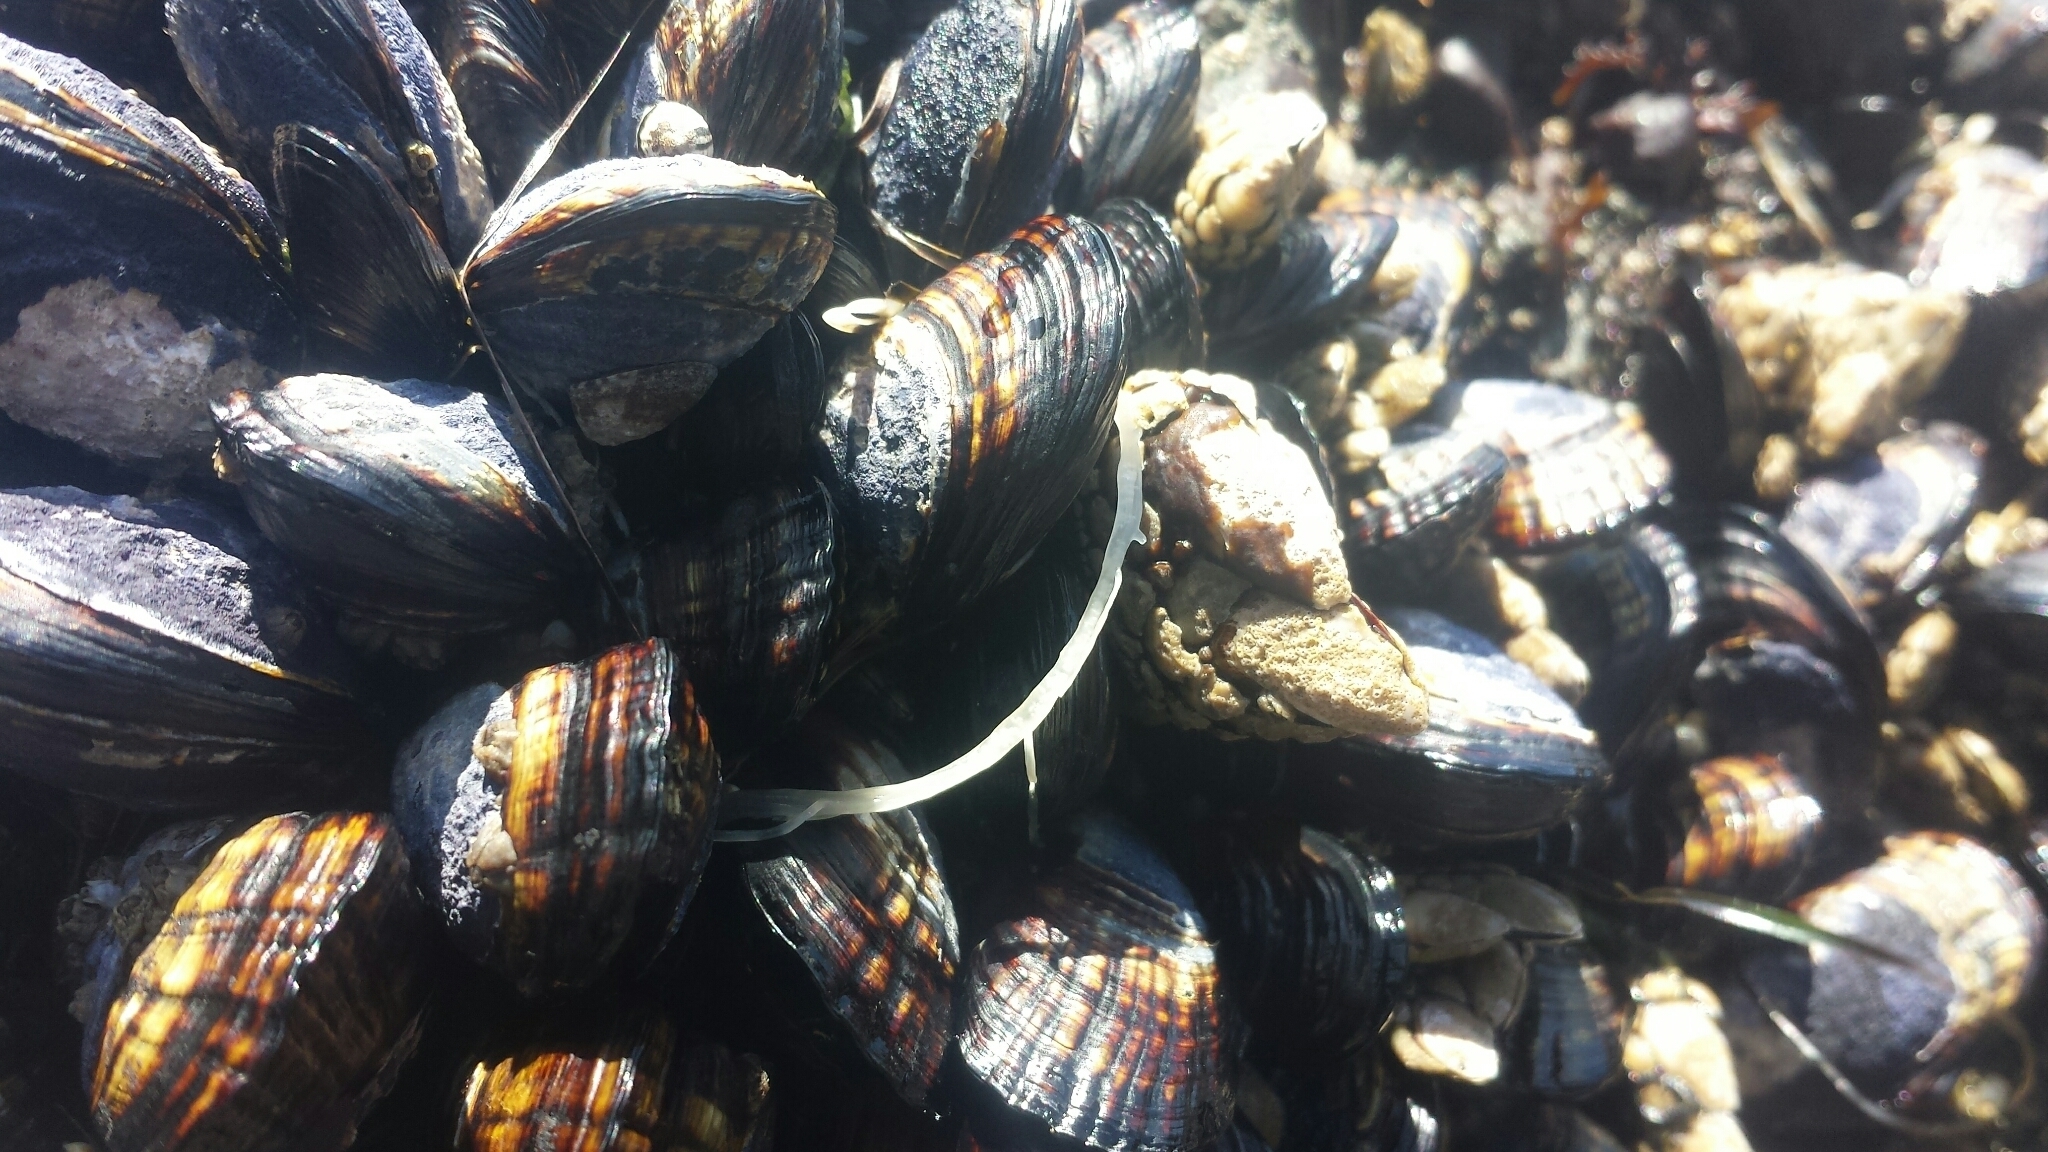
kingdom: Animalia
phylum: Mollusca
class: Bivalvia
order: Mytilida
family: Mytilidae
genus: Mytilus
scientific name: Mytilus californianus
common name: California mussel
